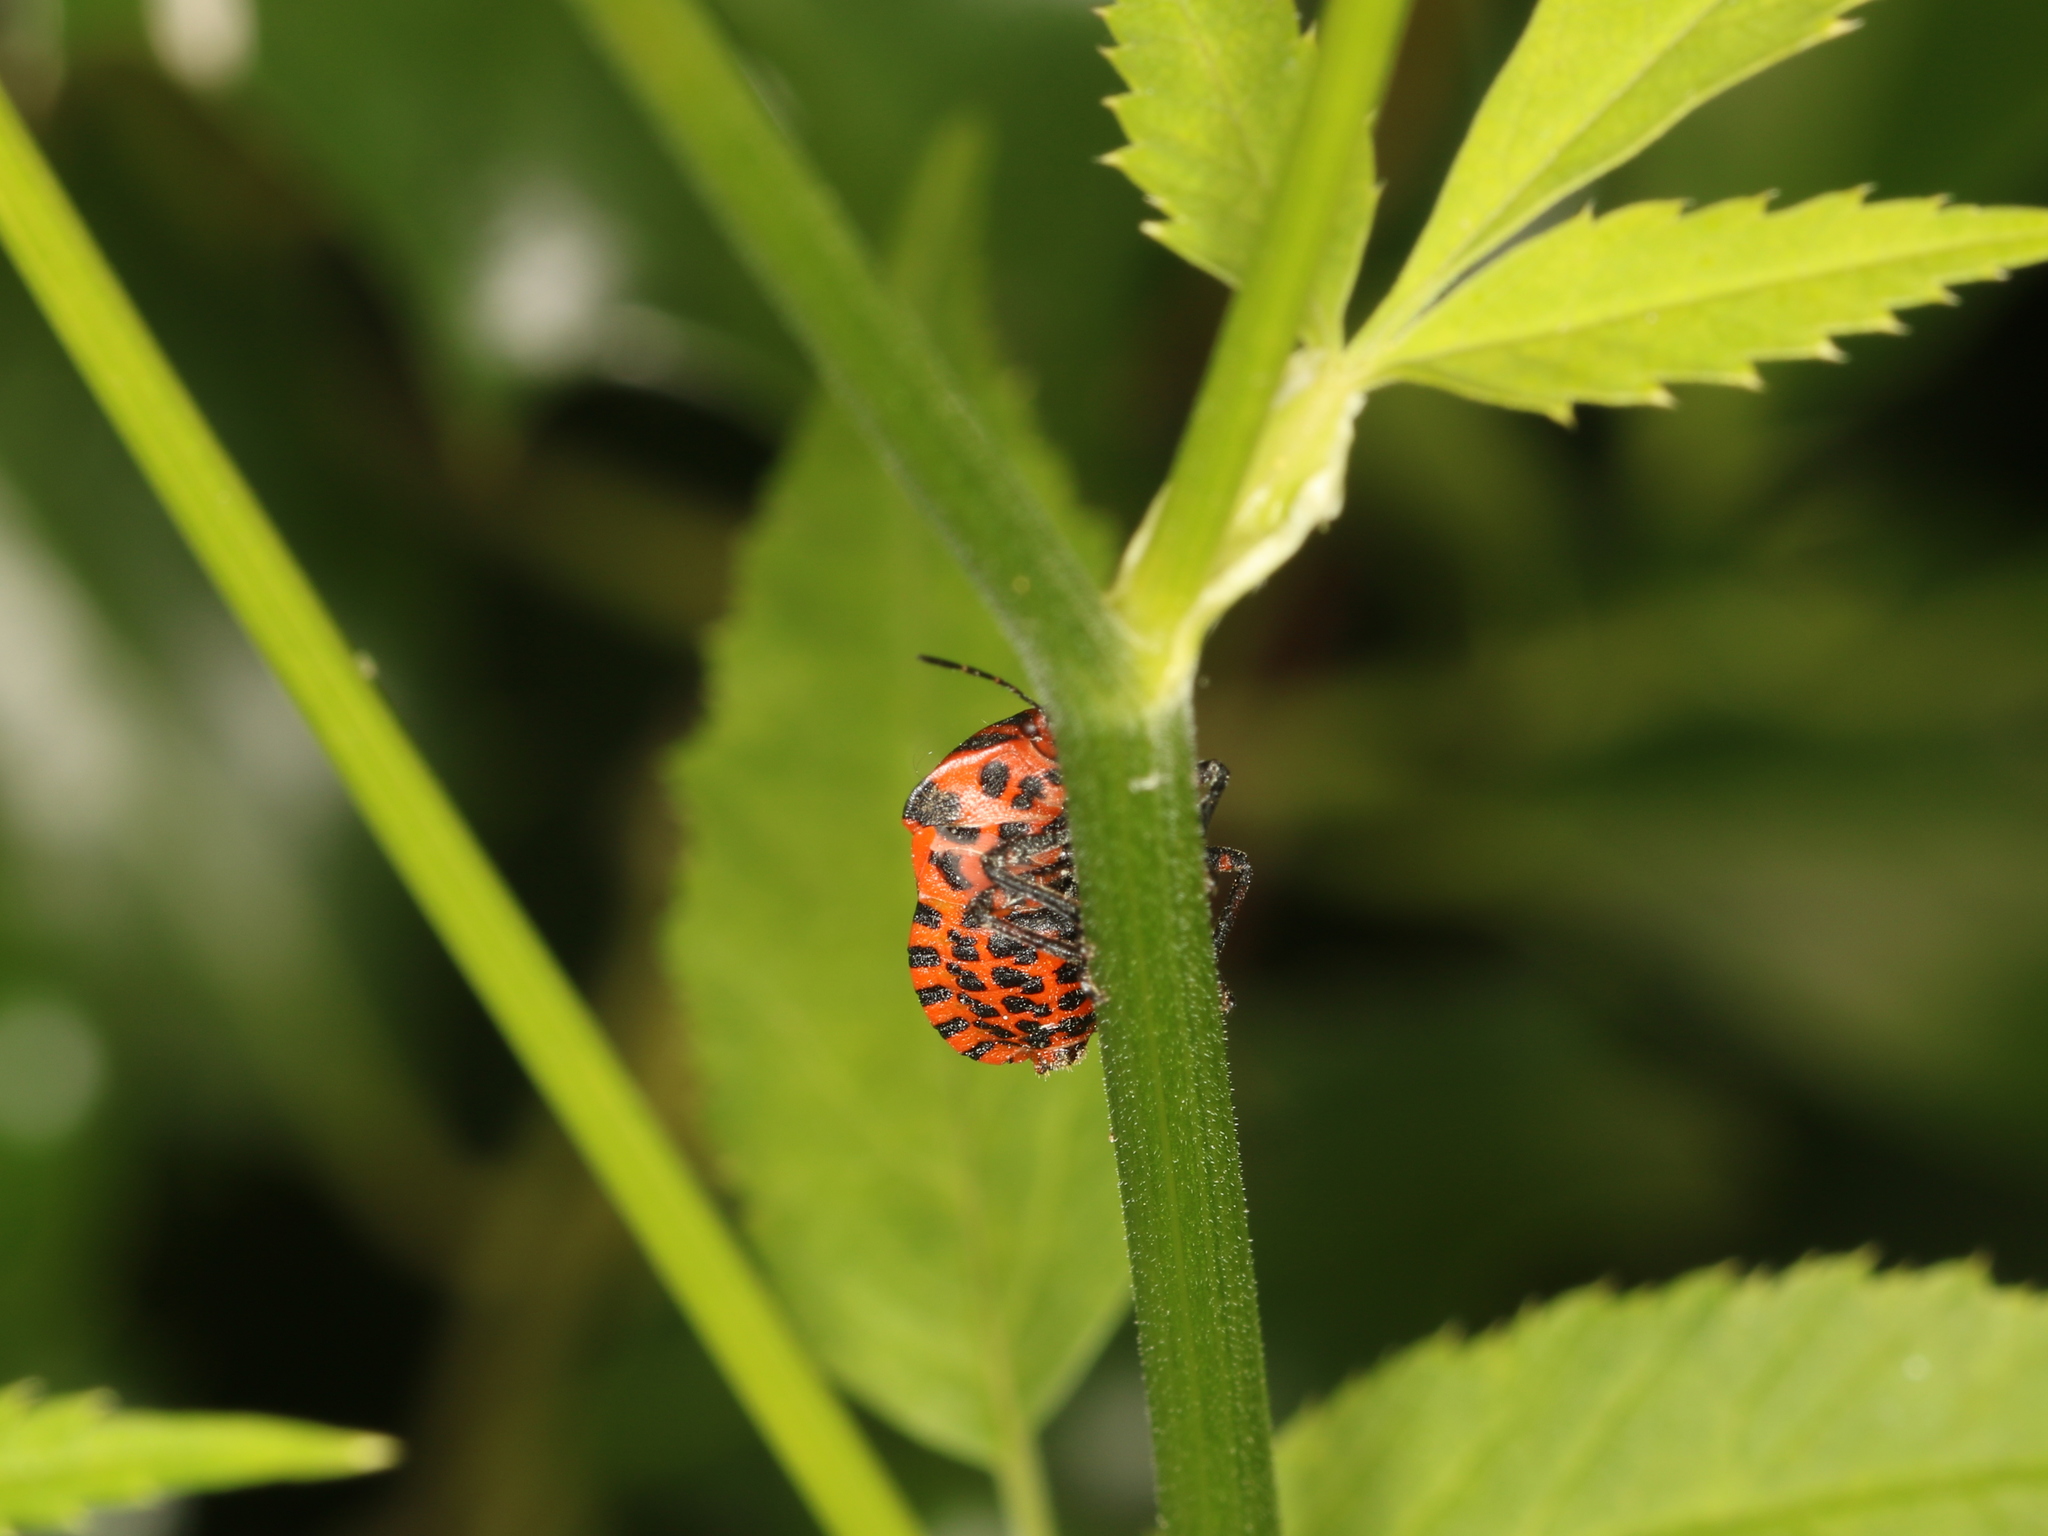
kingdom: Animalia
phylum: Arthropoda
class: Insecta
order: Hemiptera
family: Pentatomidae
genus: Graphosoma
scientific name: Graphosoma italicum
